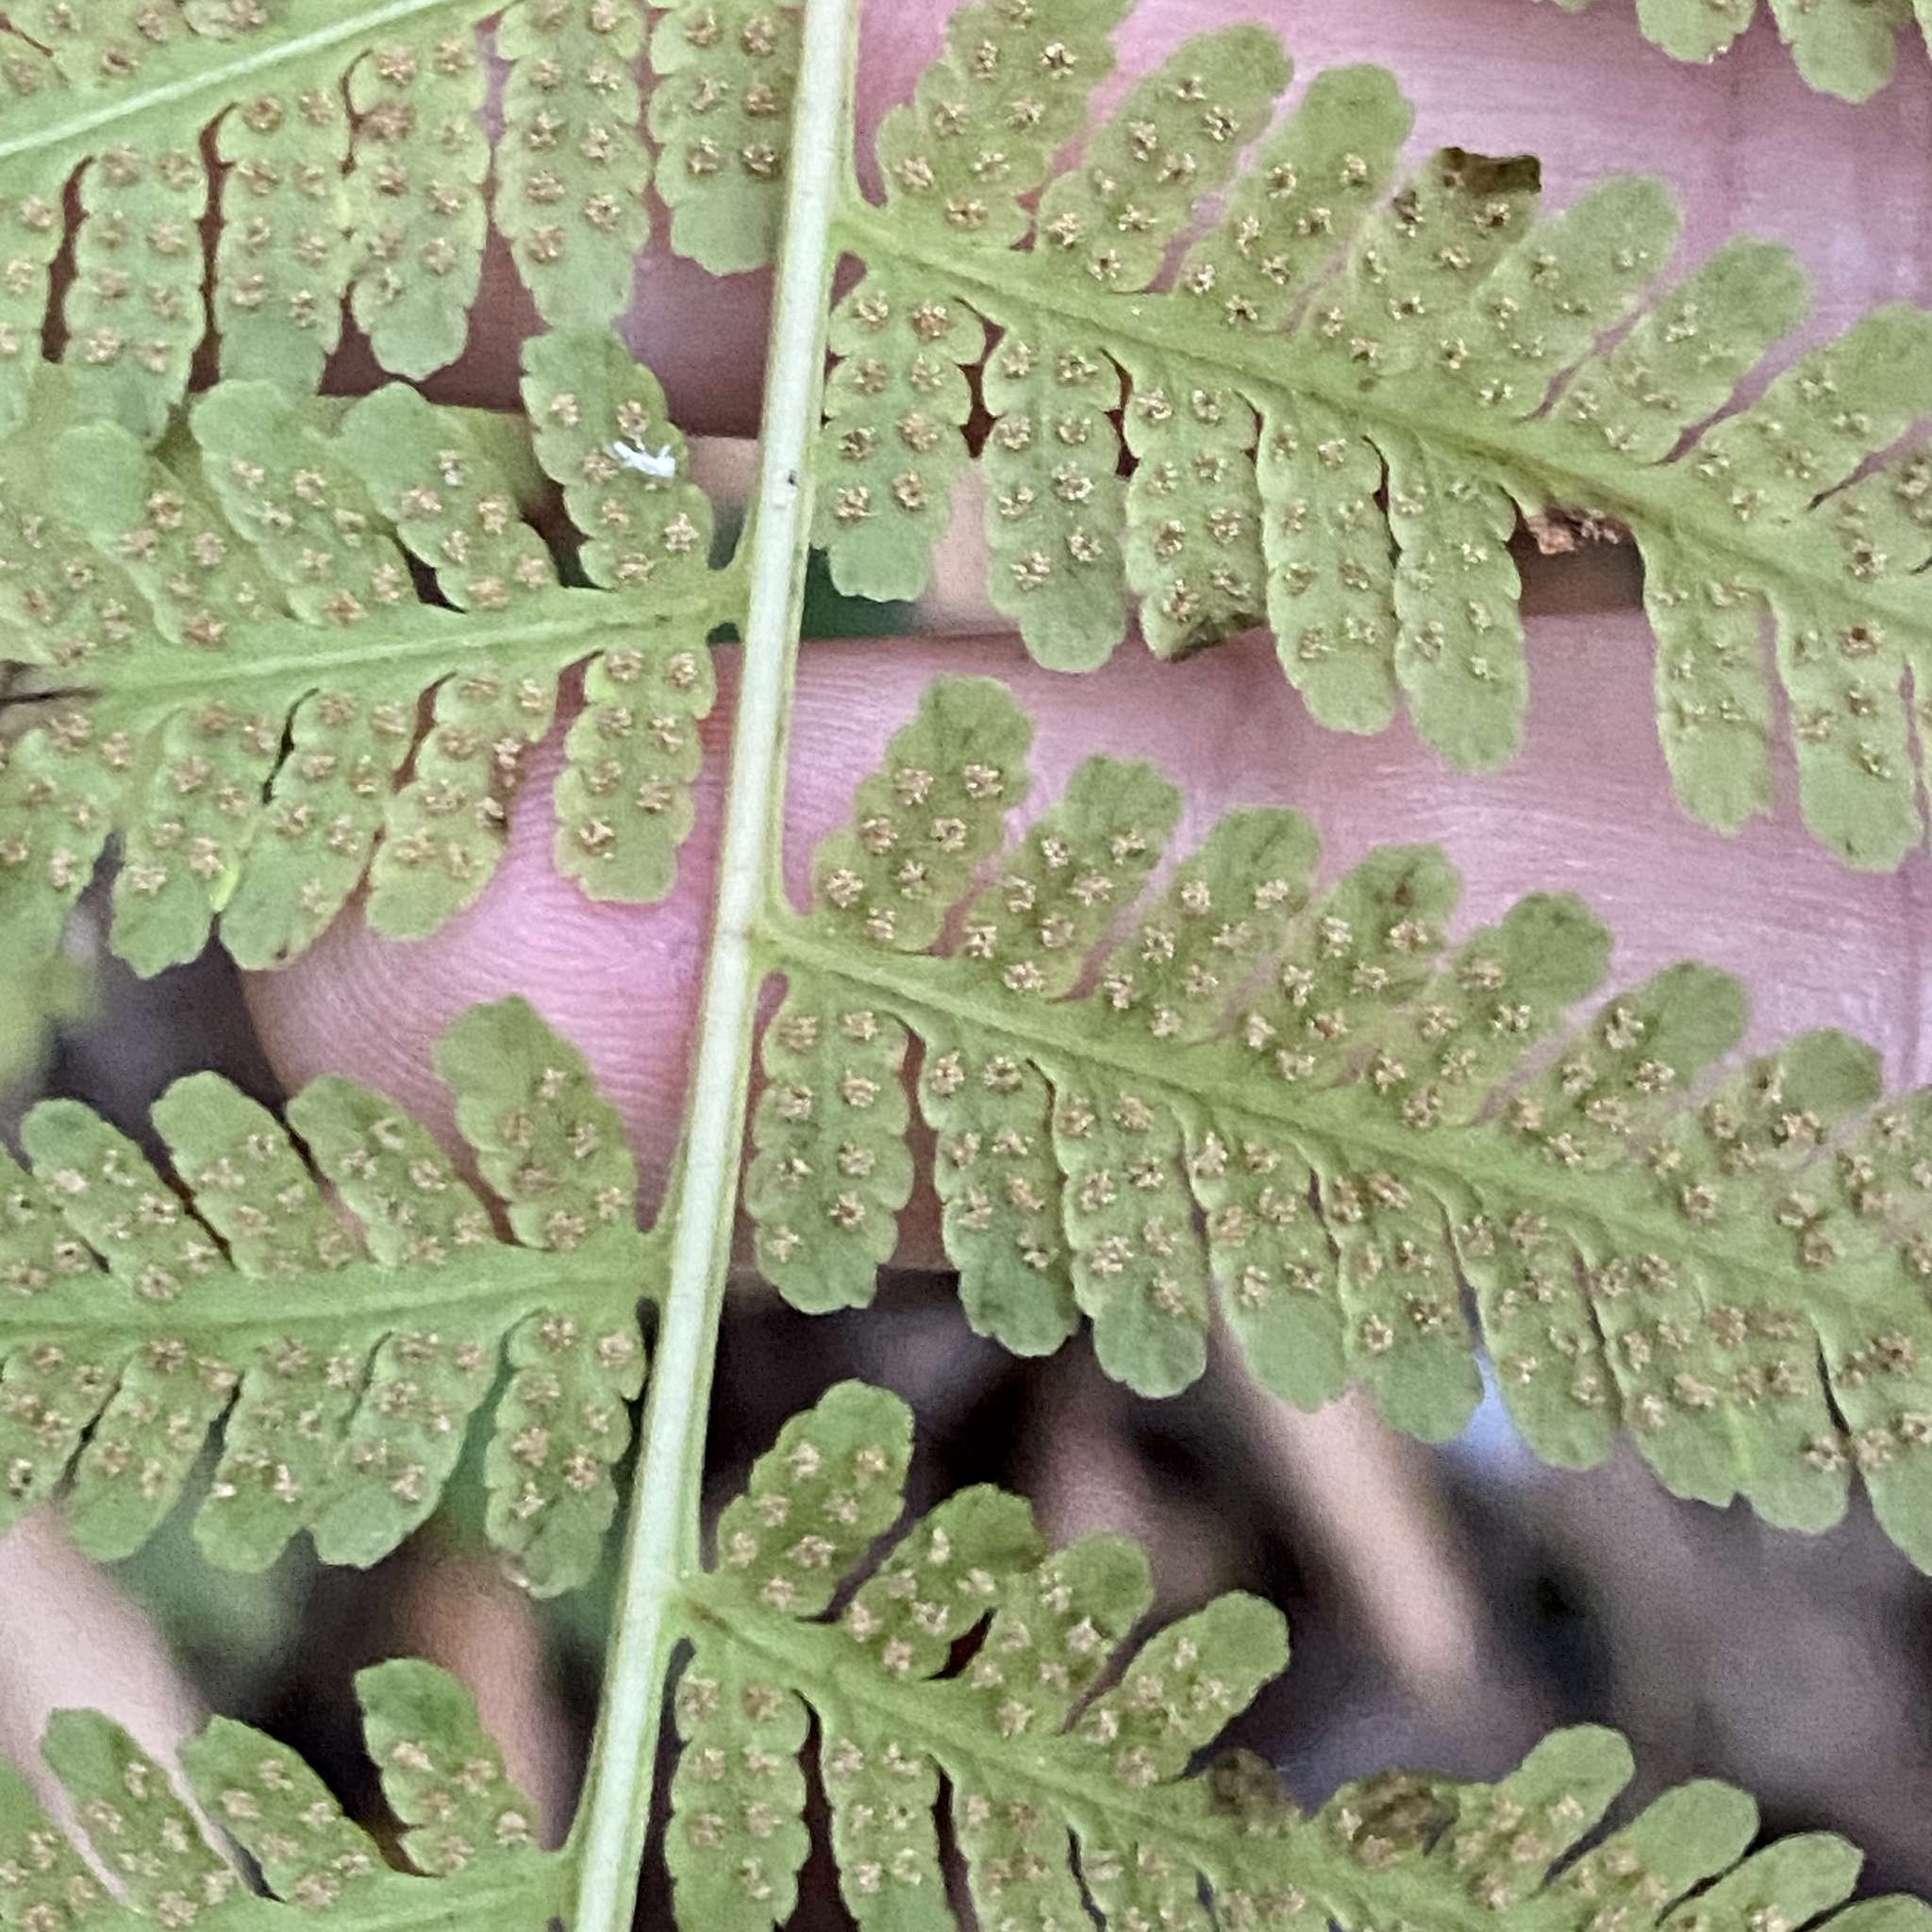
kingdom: Plantae
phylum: Tracheophyta
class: Polypodiopsida
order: Polypodiales
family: Thelypteridaceae
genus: Macrothelypteris
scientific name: Macrothelypteris torresiana
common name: Swordfern
